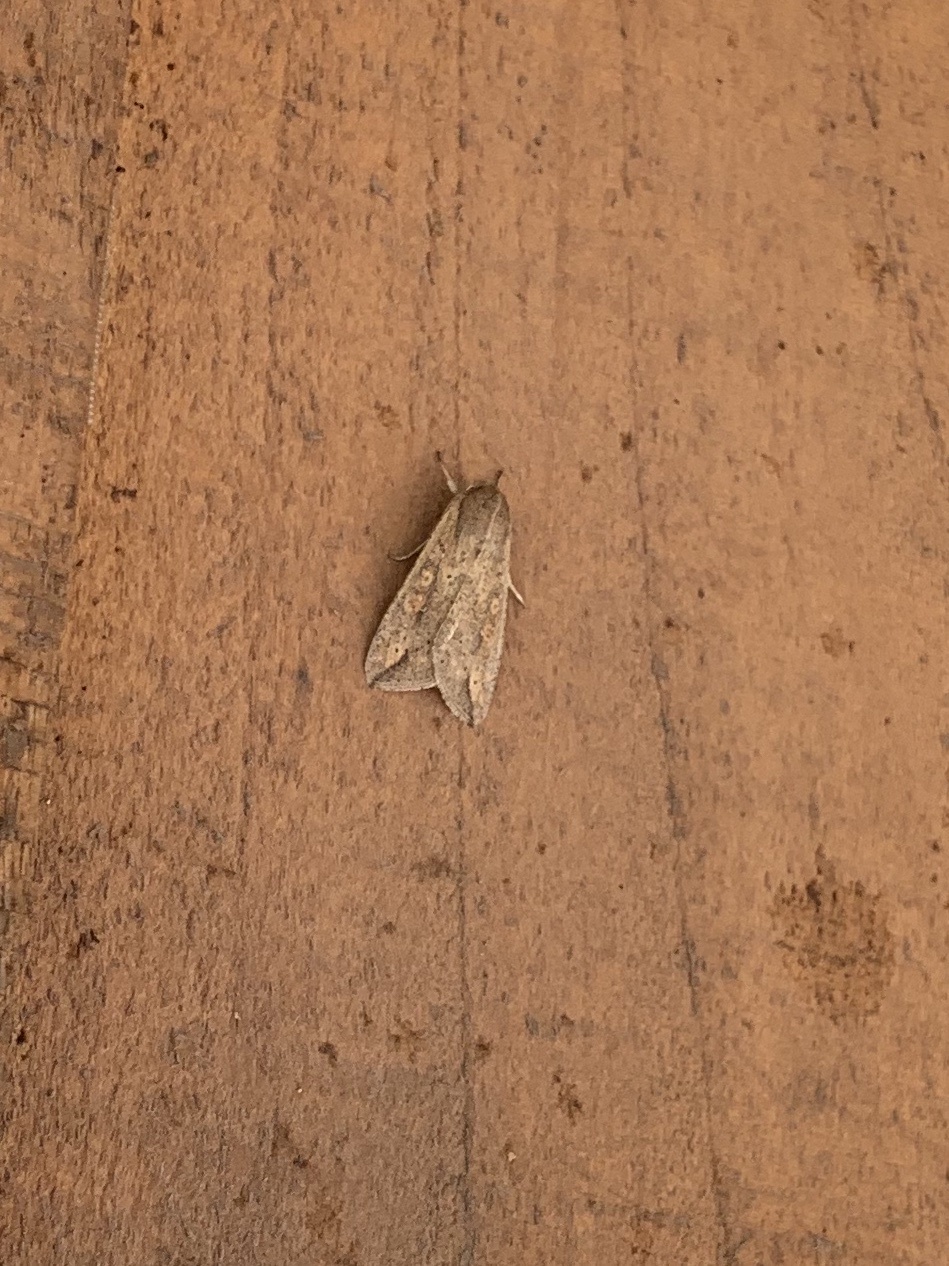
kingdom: Animalia
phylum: Arthropoda
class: Insecta
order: Lepidoptera
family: Noctuidae
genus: Mythimna
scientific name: Mythimna unipuncta
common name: White-speck
